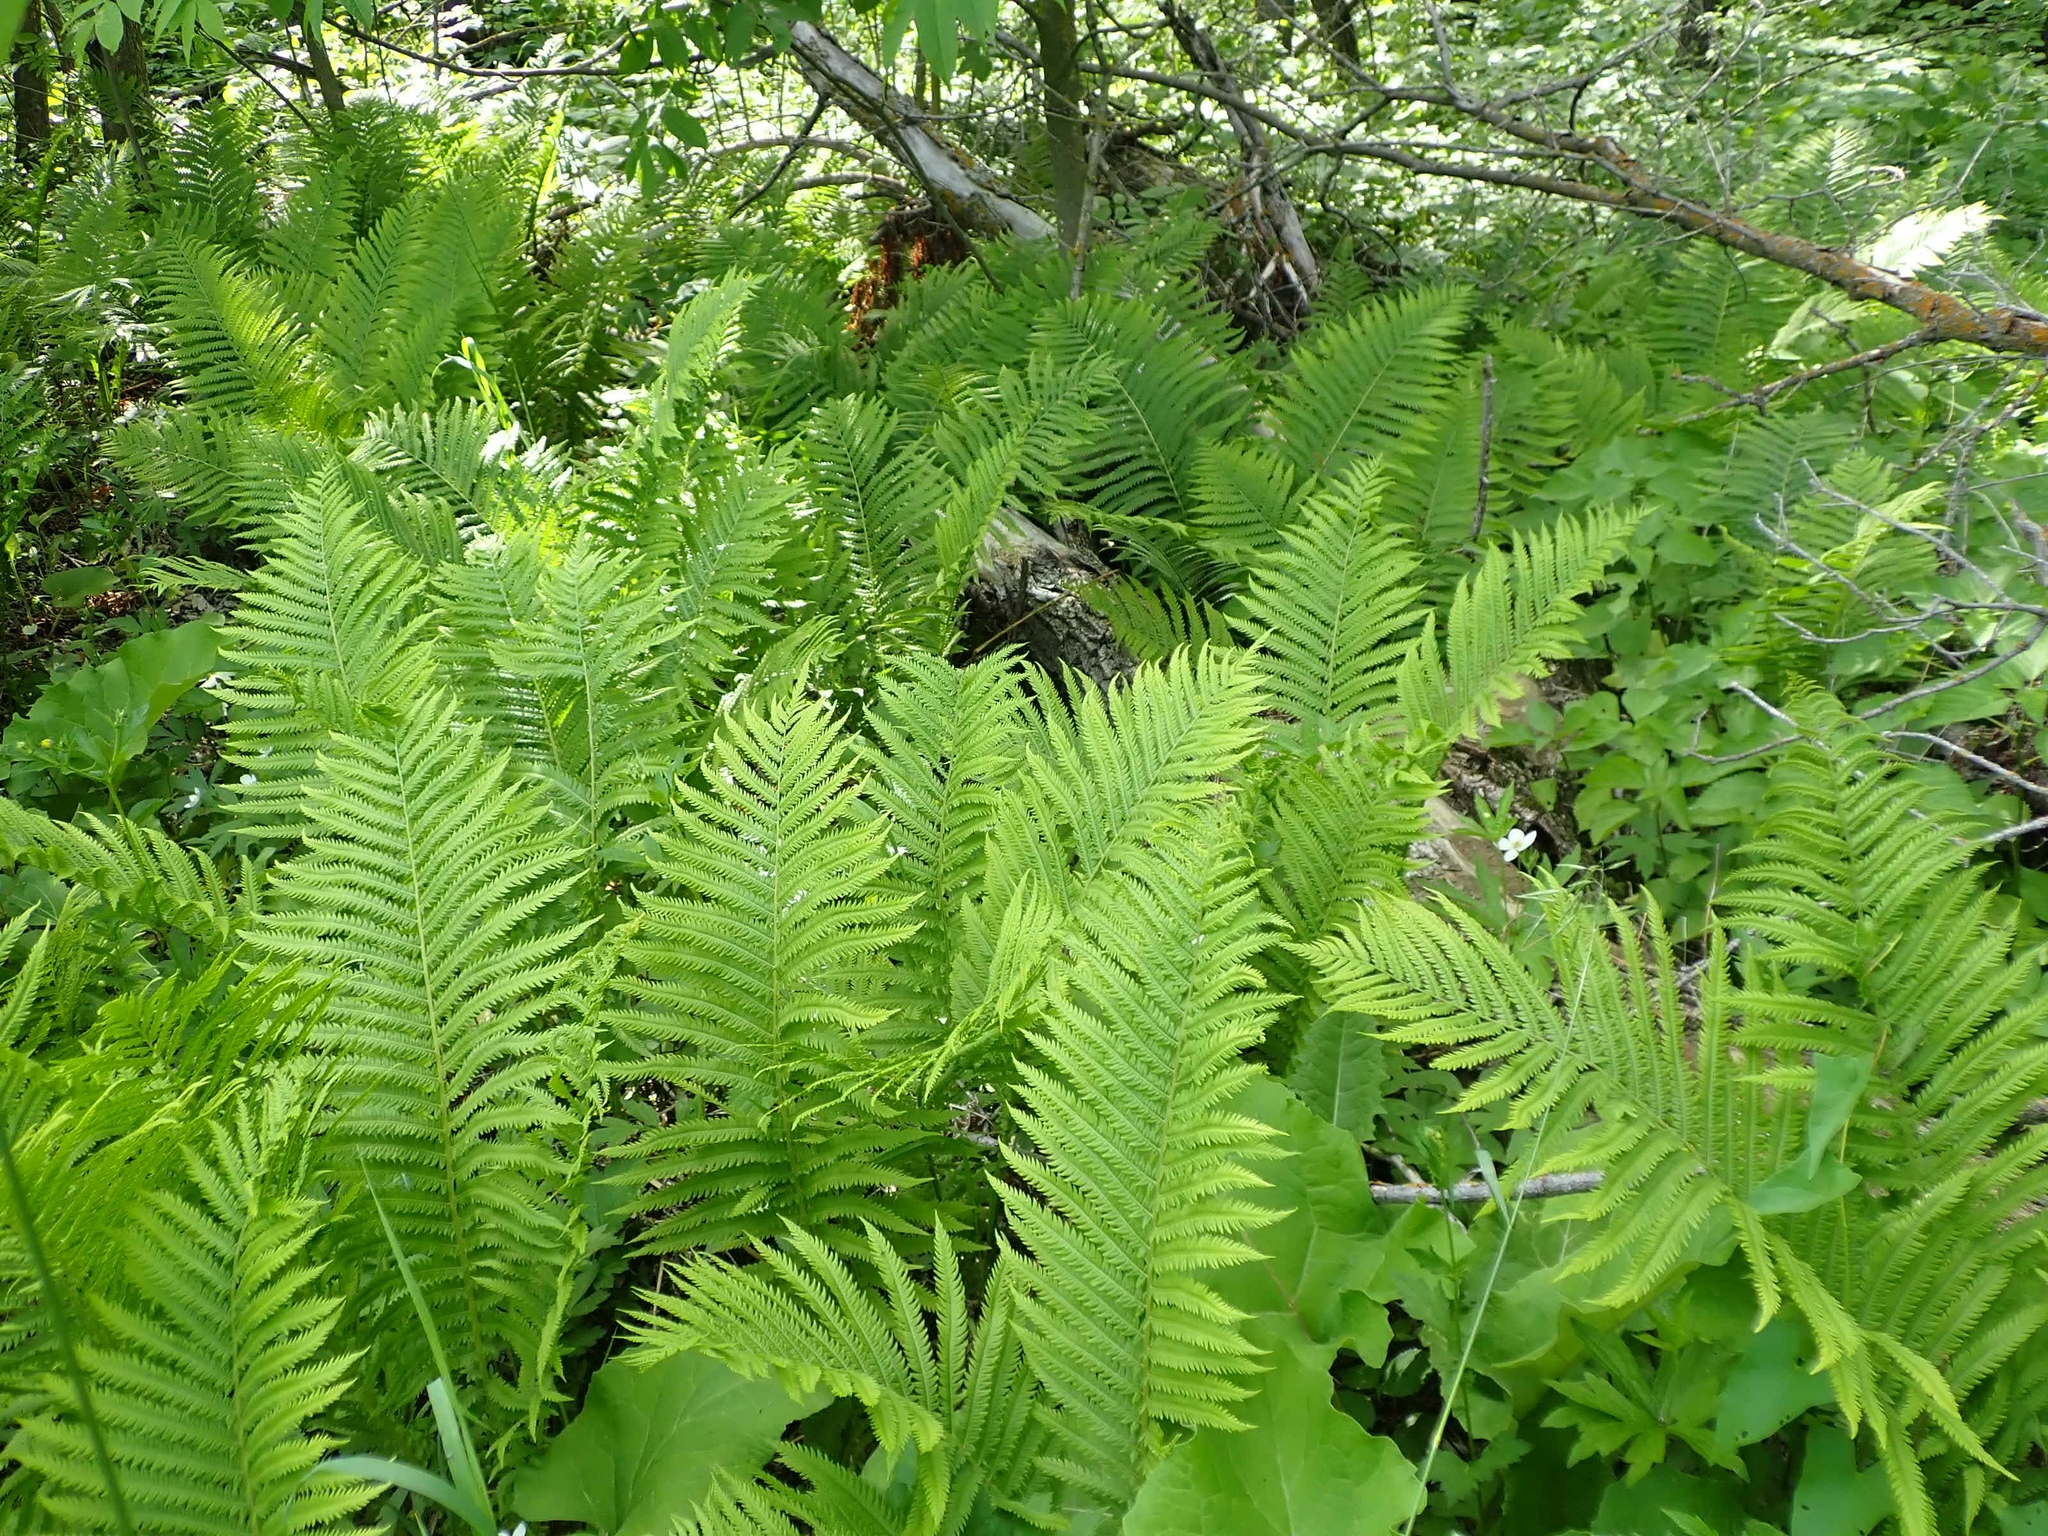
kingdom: Plantae
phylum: Tracheophyta
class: Polypodiopsida
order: Polypodiales
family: Onocleaceae
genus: Matteuccia
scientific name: Matteuccia struthiopteris
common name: Ostrich fern
